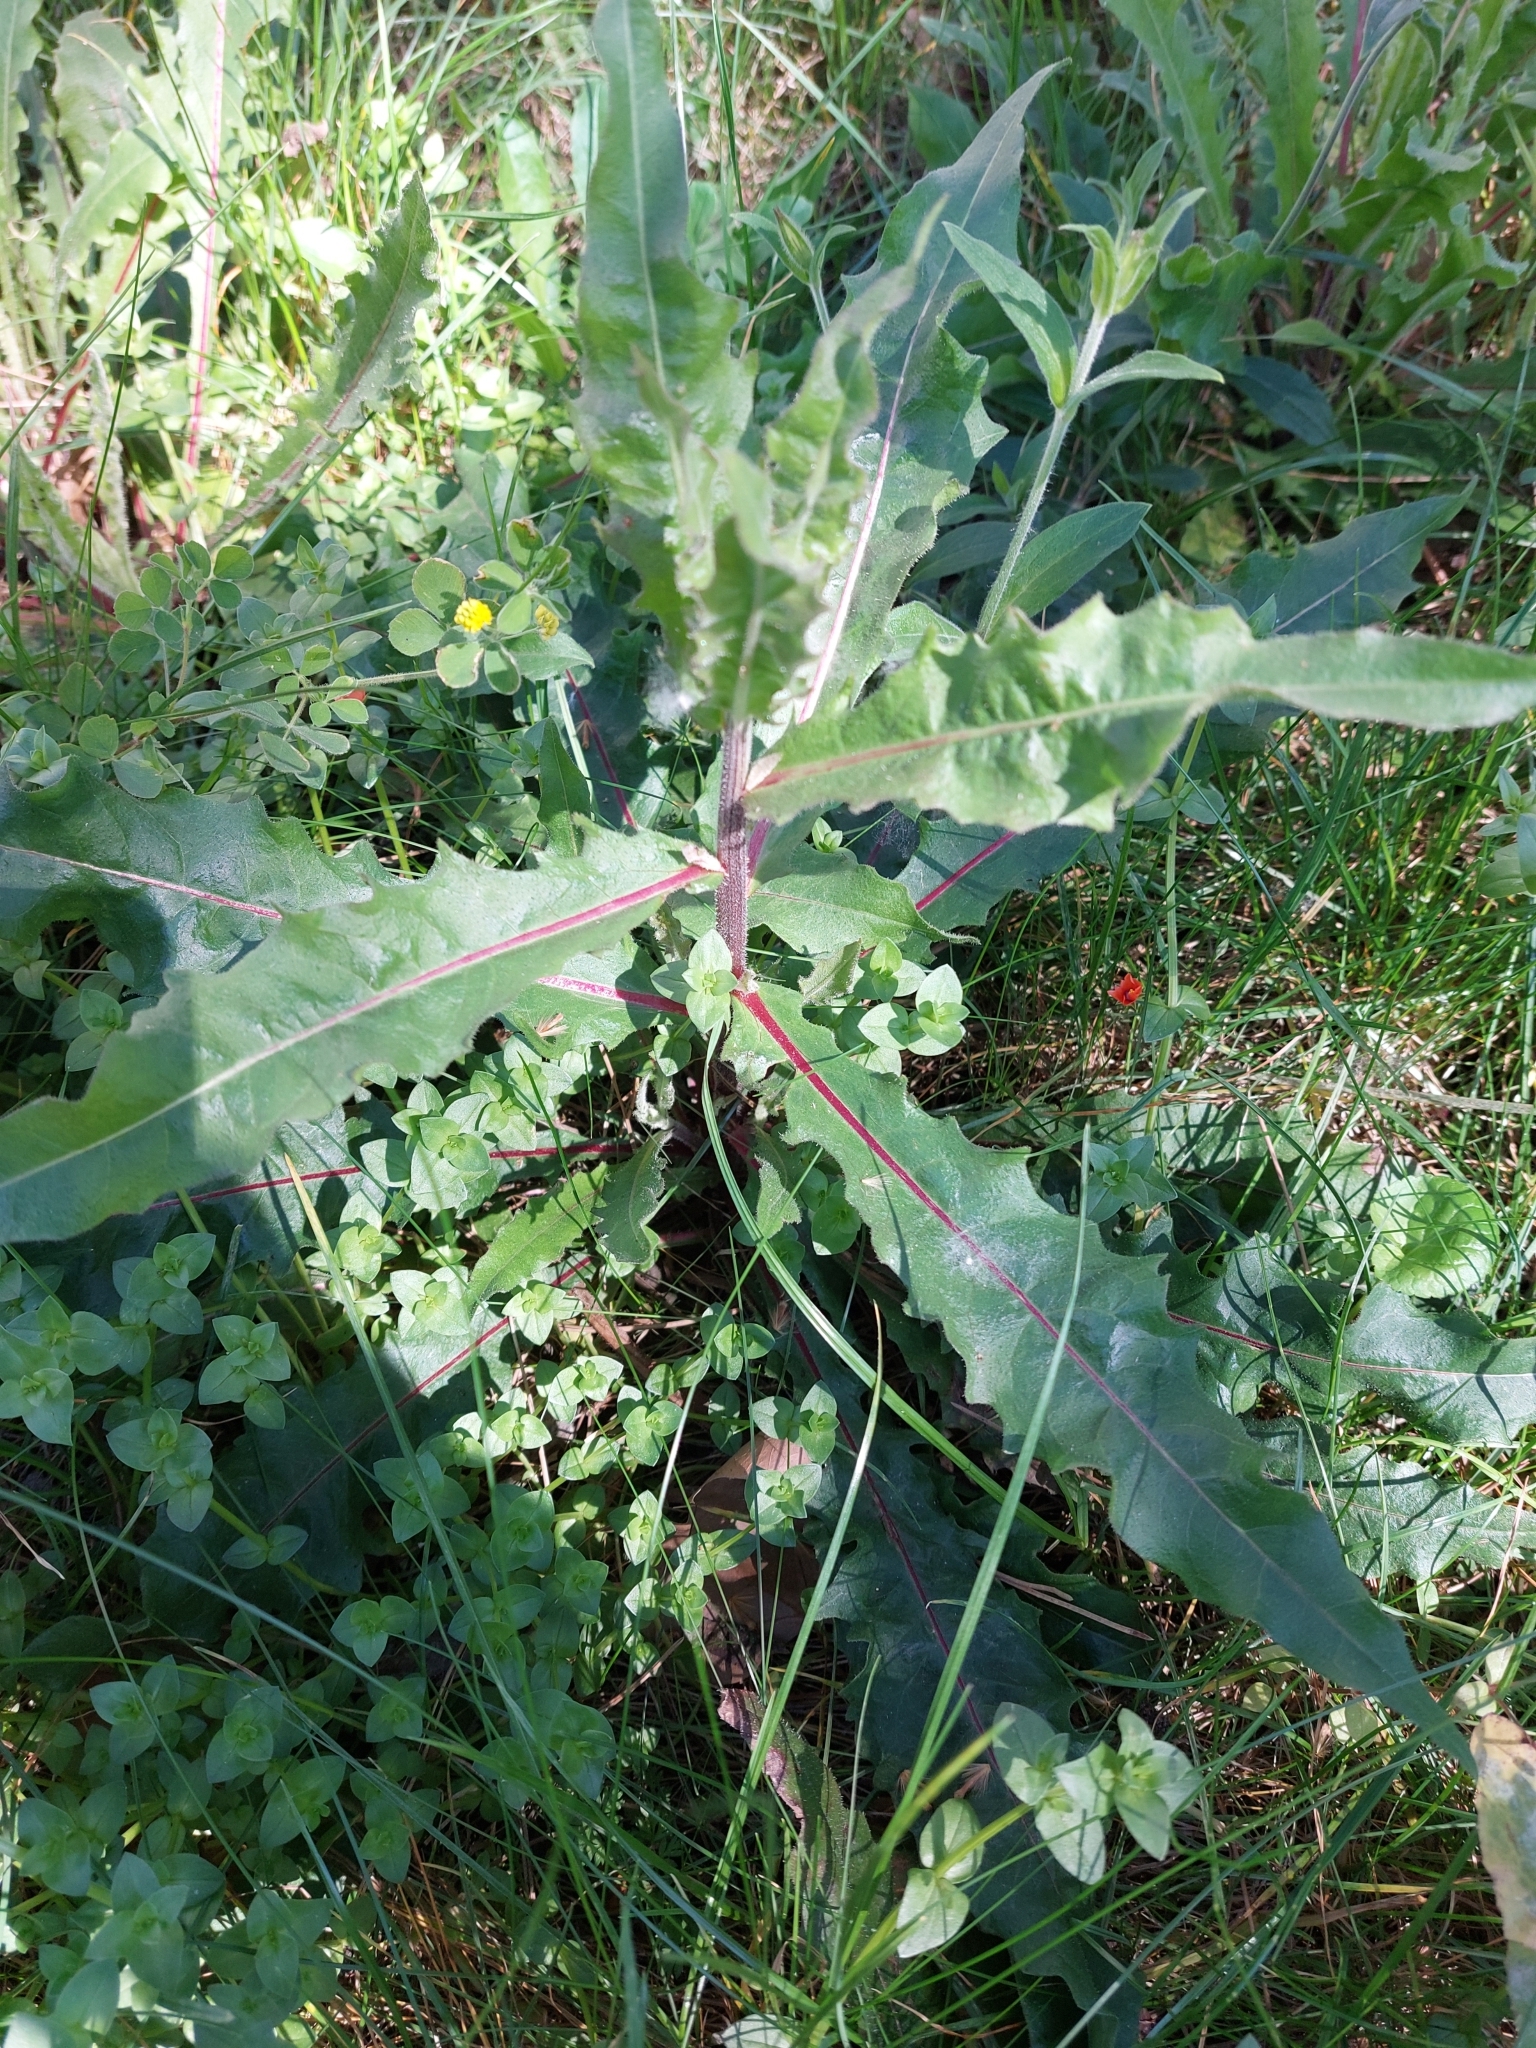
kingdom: Plantae
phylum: Tracheophyta
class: Magnoliopsida
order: Asterales
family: Asteraceae
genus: Picris
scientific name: Picris hieracioides
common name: Hawkweed oxtongue
